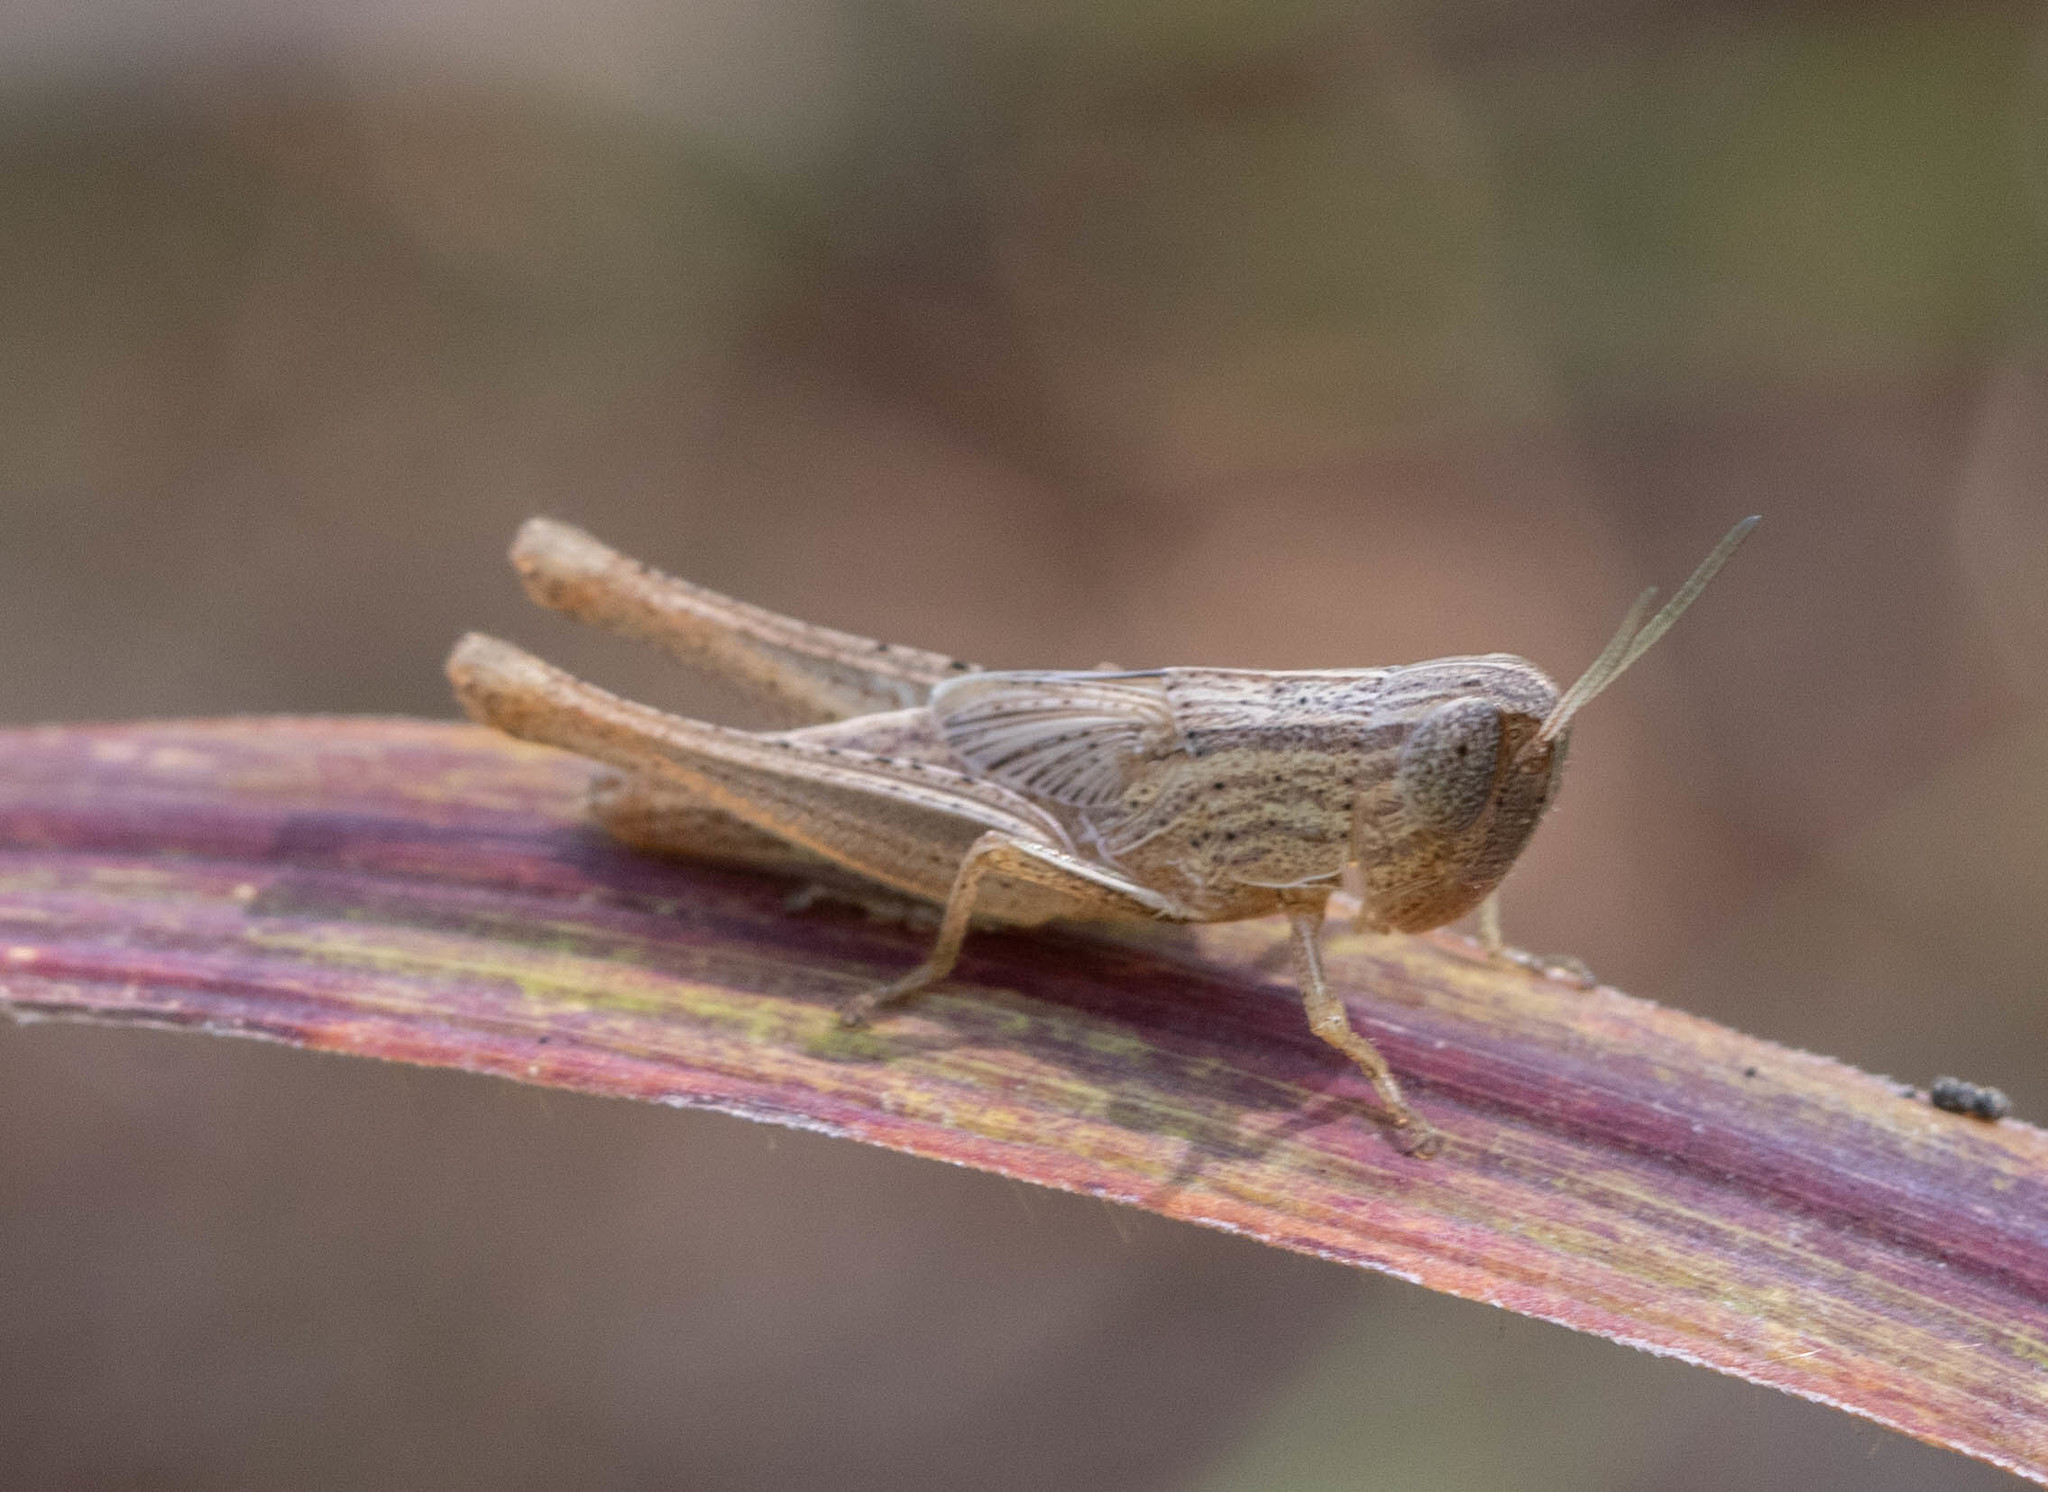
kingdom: Animalia
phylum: Arthropoda
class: Insecta
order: Orthoptera
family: Acrididae
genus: Amblytropidia
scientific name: Amblytropidia mysteca
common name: Brown winter grasshopper
